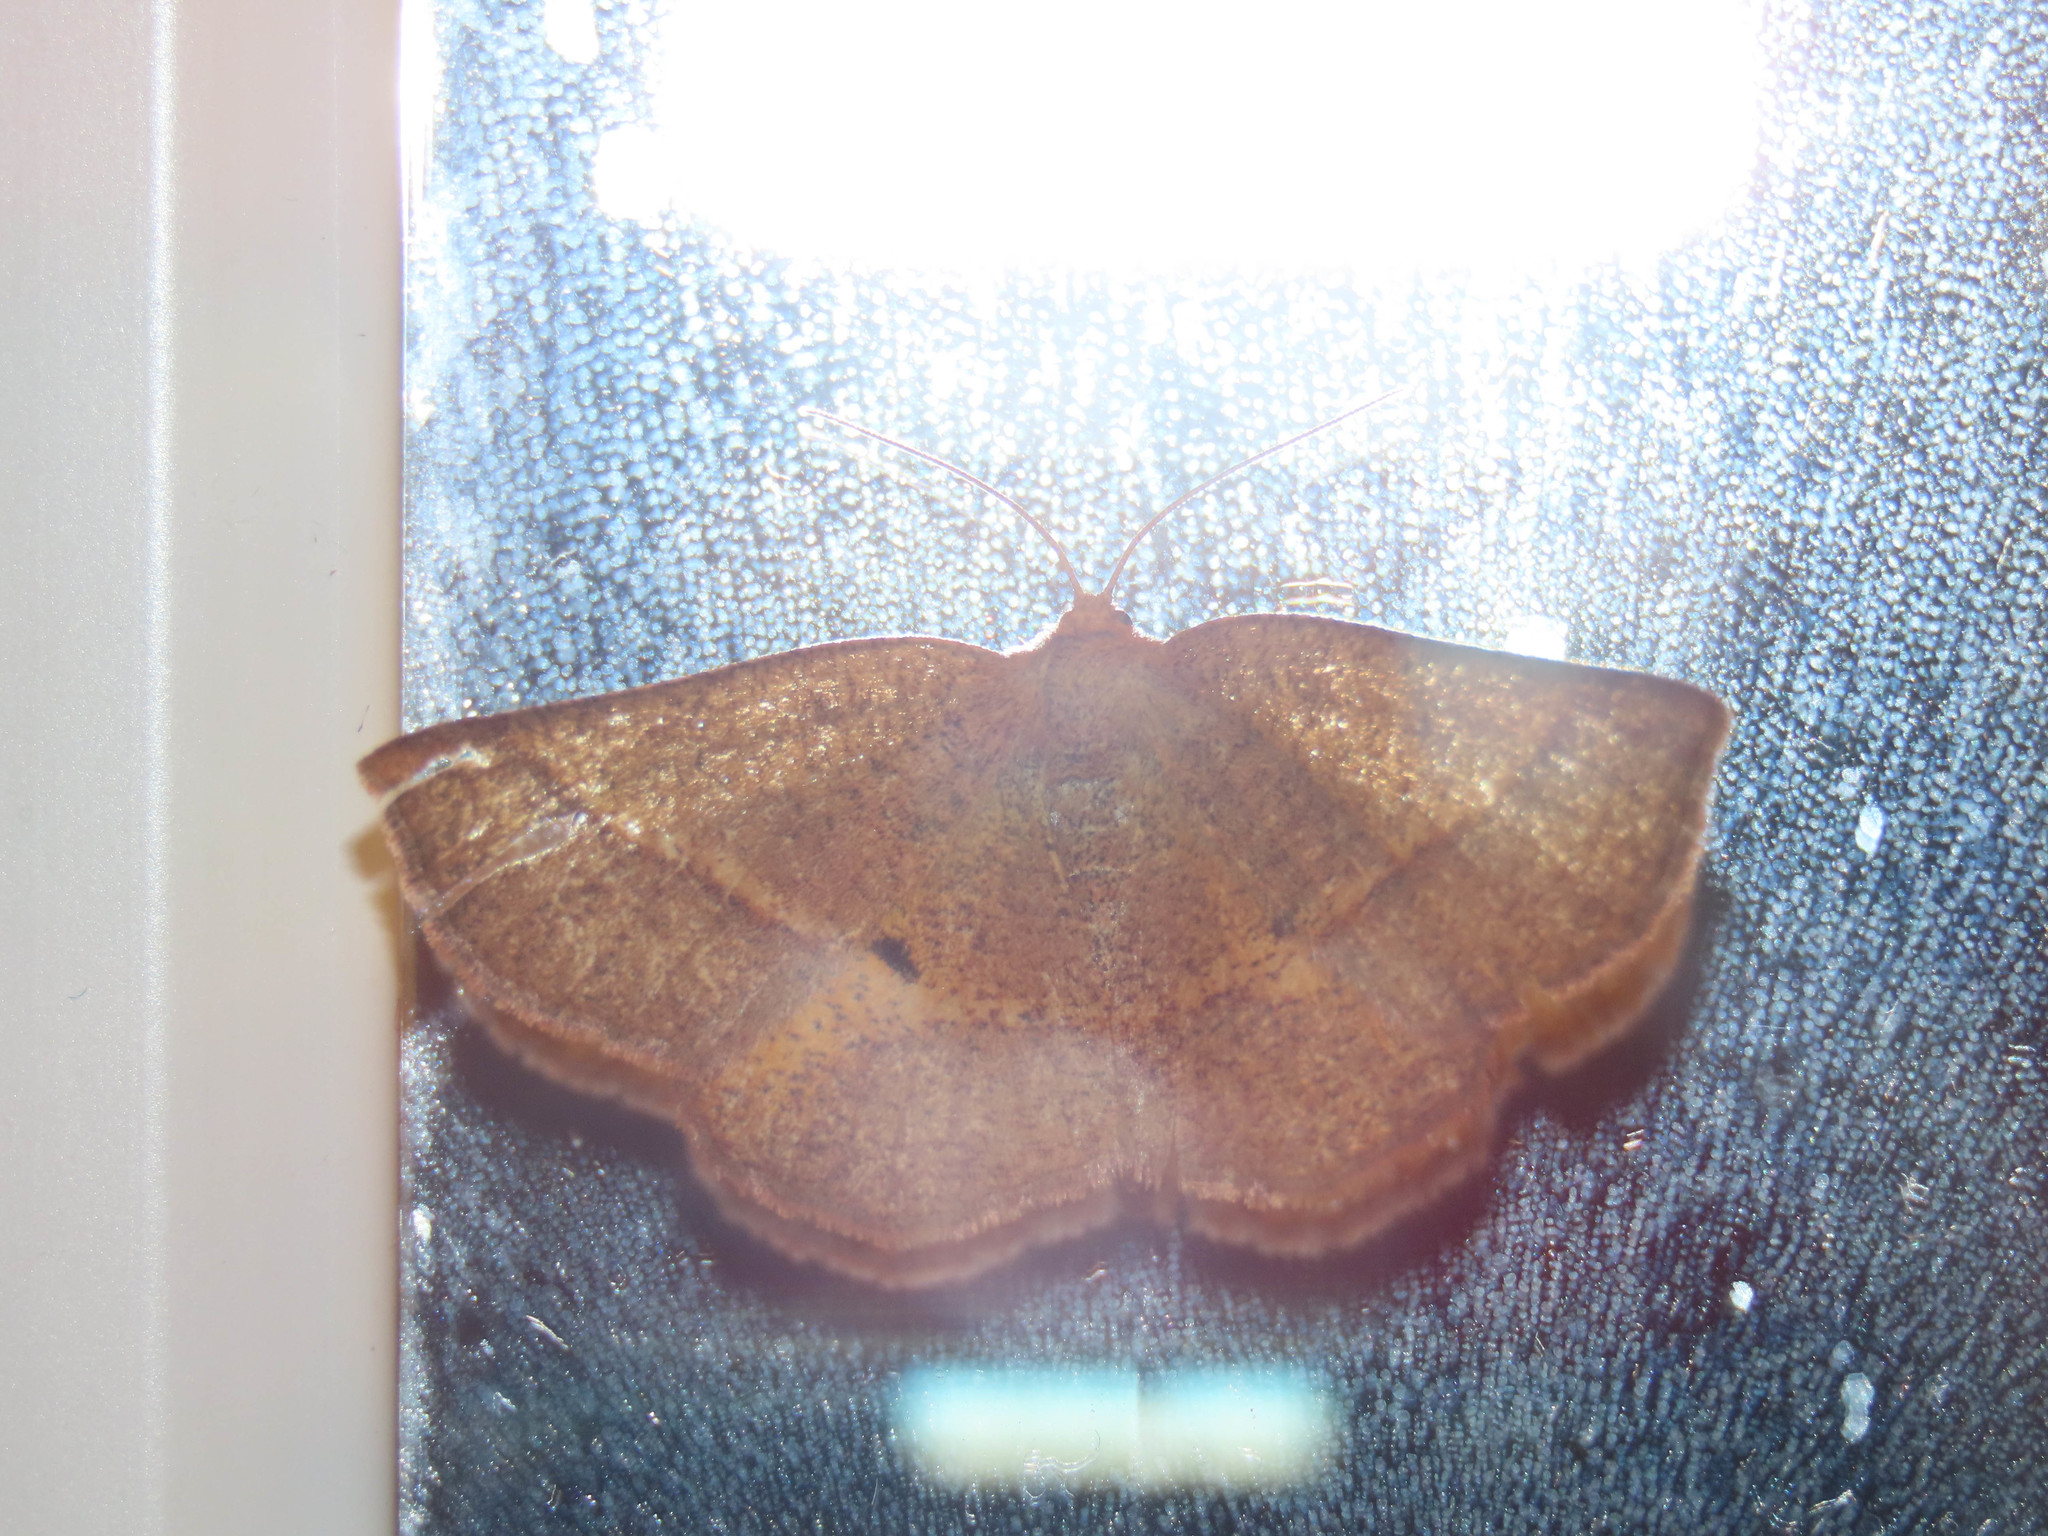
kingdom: Animalia
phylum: Arthropoda
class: Insecta
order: Lepidoptera
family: Geometridae
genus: Metarranthis
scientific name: Metarranthis obfirmaria
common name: Yellow-washed metarranthis
